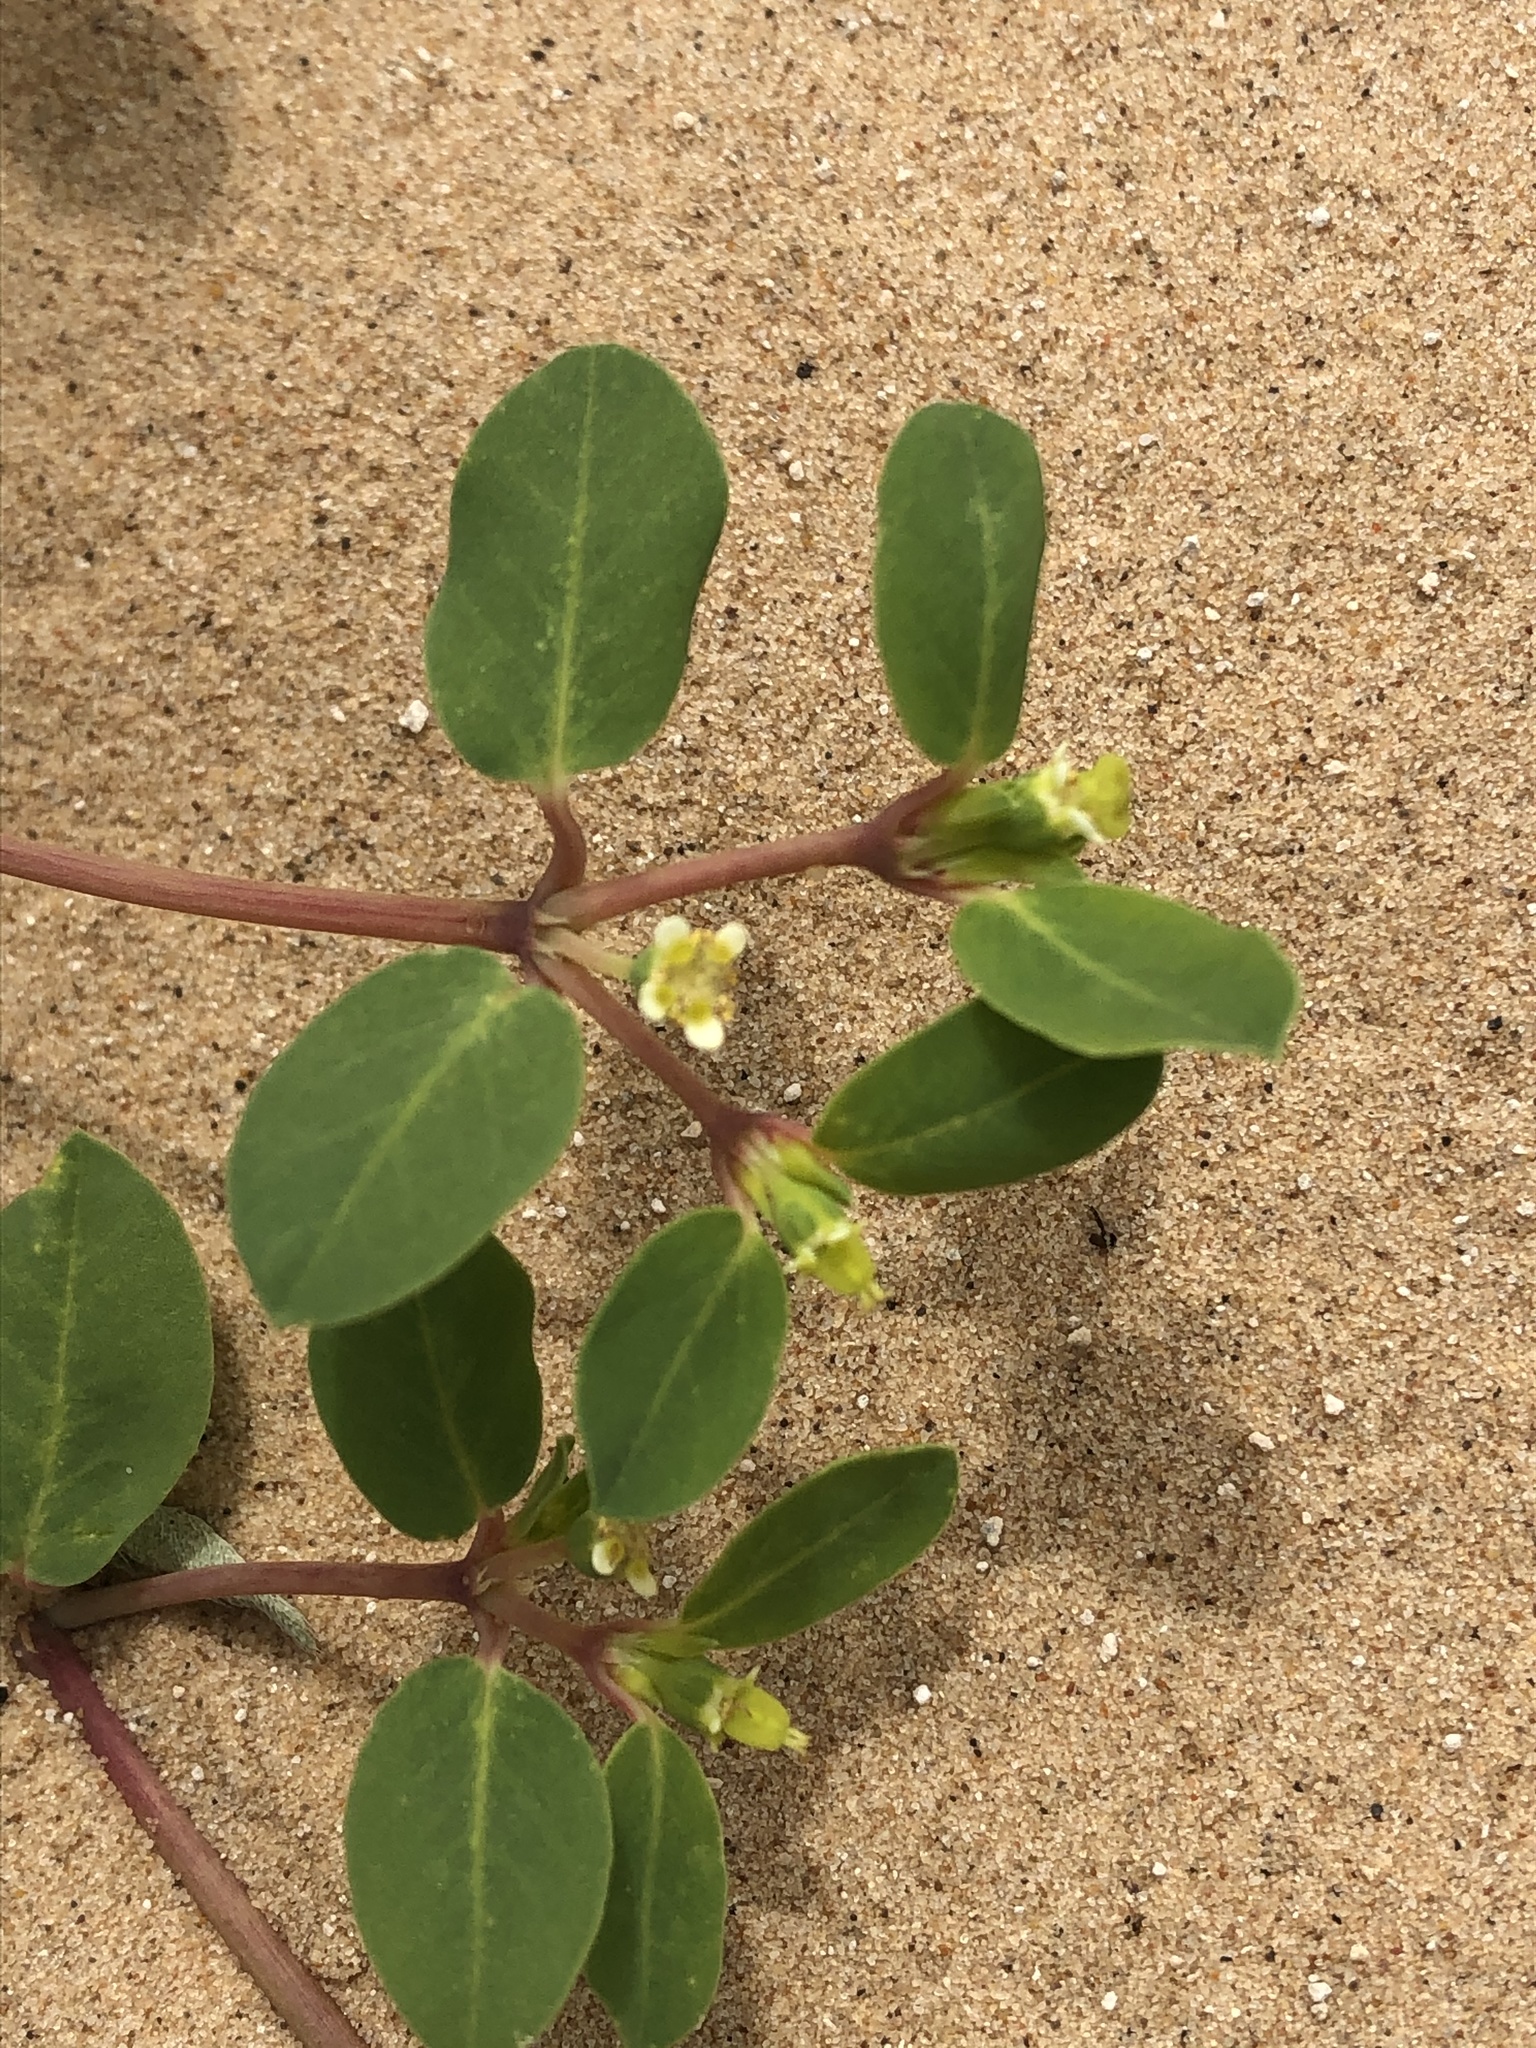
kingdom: Plantae
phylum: Tracheophyta
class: Magnoliopsida
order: Malpighiales
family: Euphorbiaceae
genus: Euphorbia
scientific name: Euphorbia carunculata
